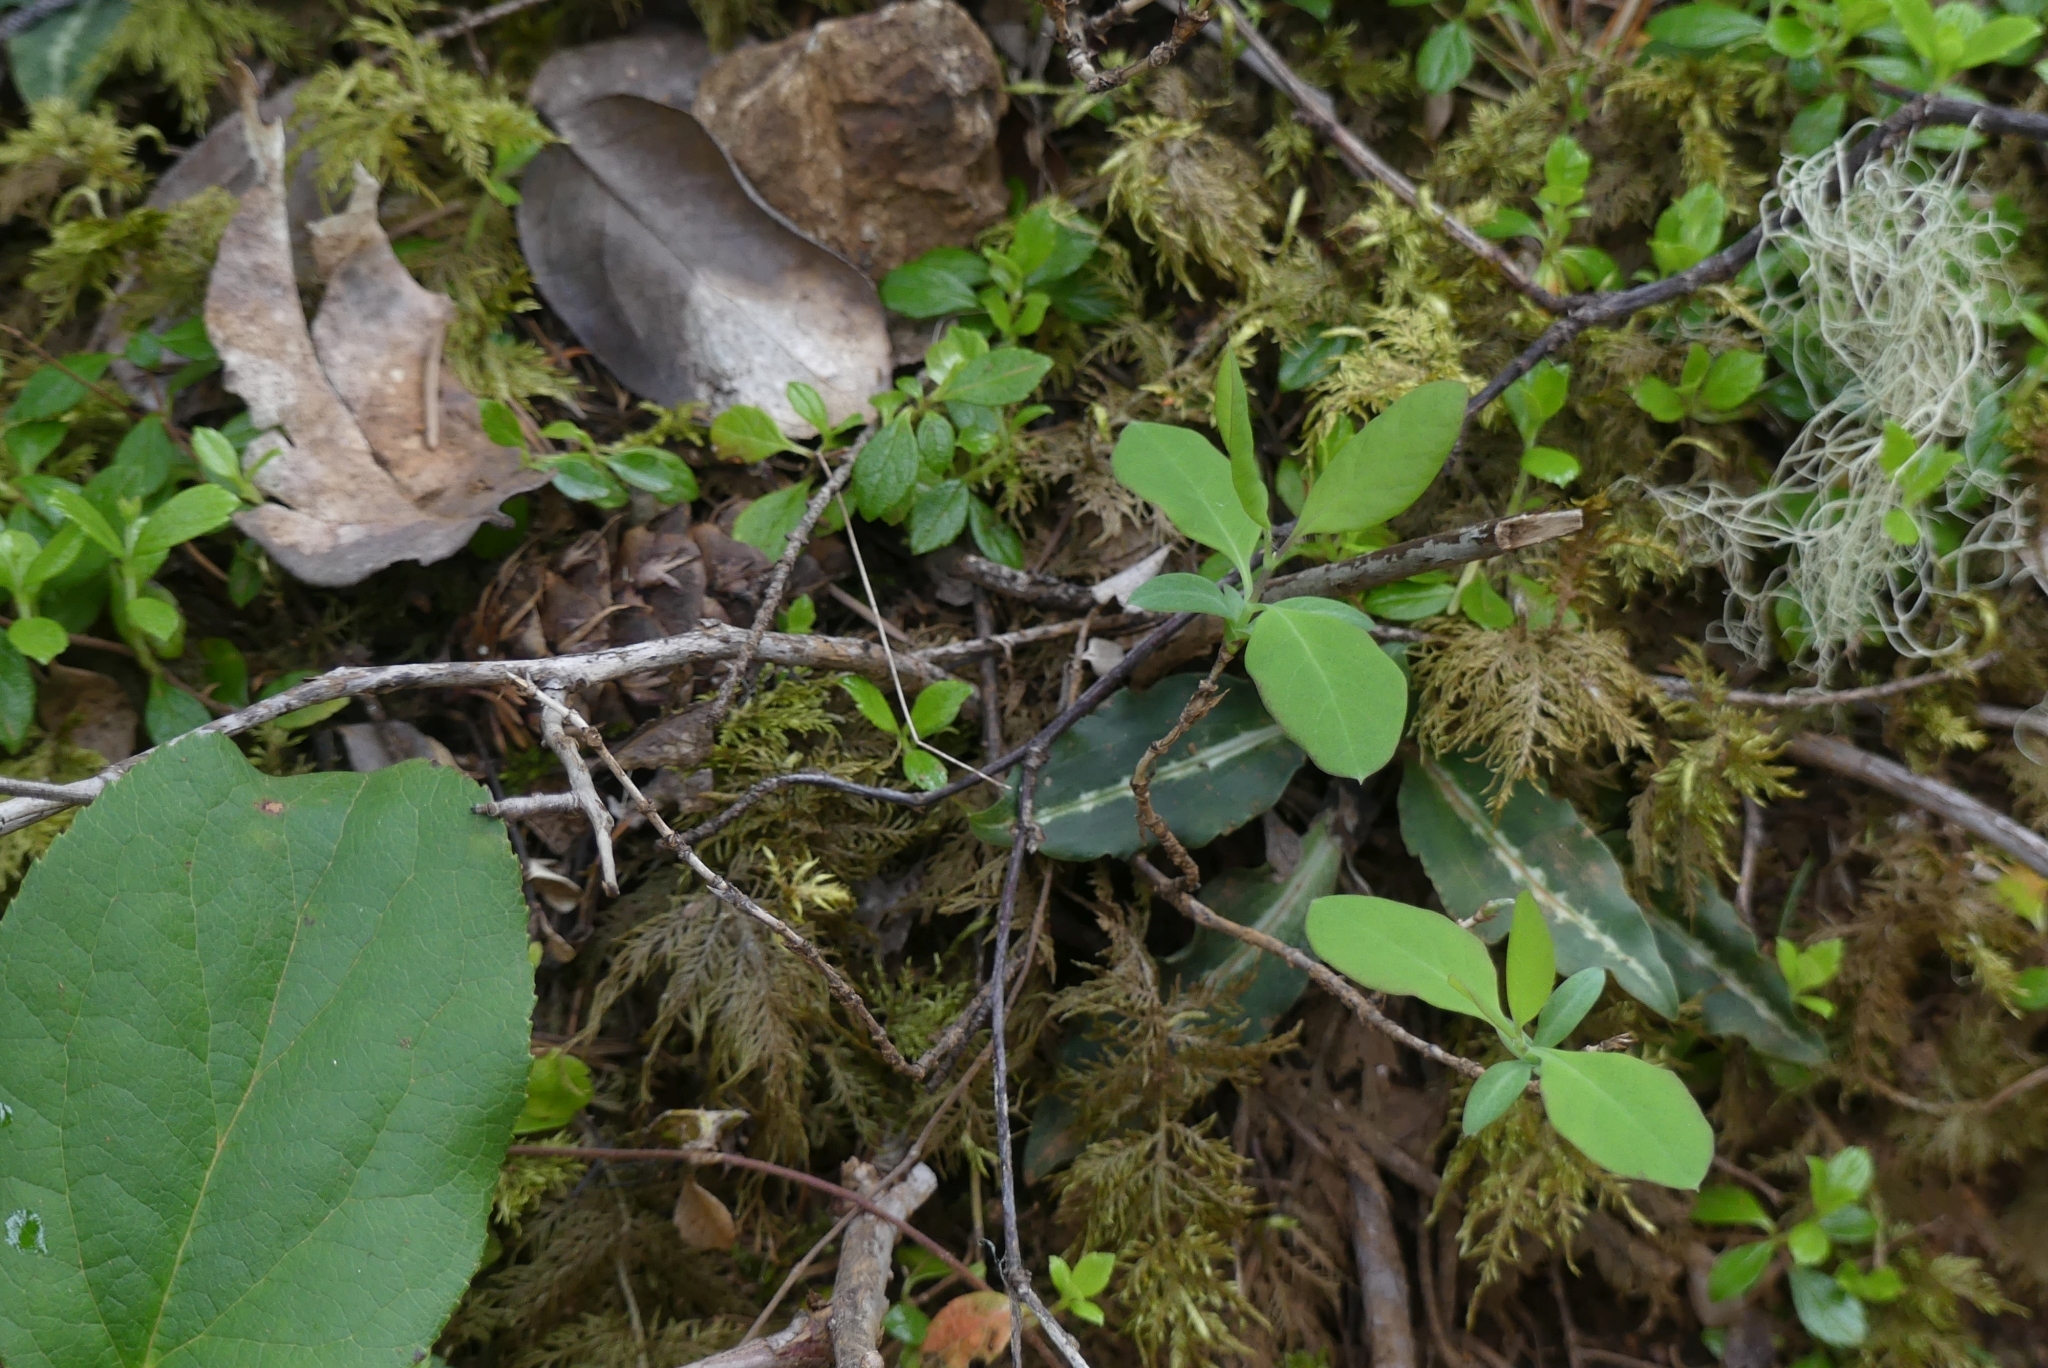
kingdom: Plantae
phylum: Tracheophyta
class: Liliopsida
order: Asparagales
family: Orchidaceae
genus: Goodyera
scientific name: Goodyera oblongifolia
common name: Giant rattlesnake-plantain
